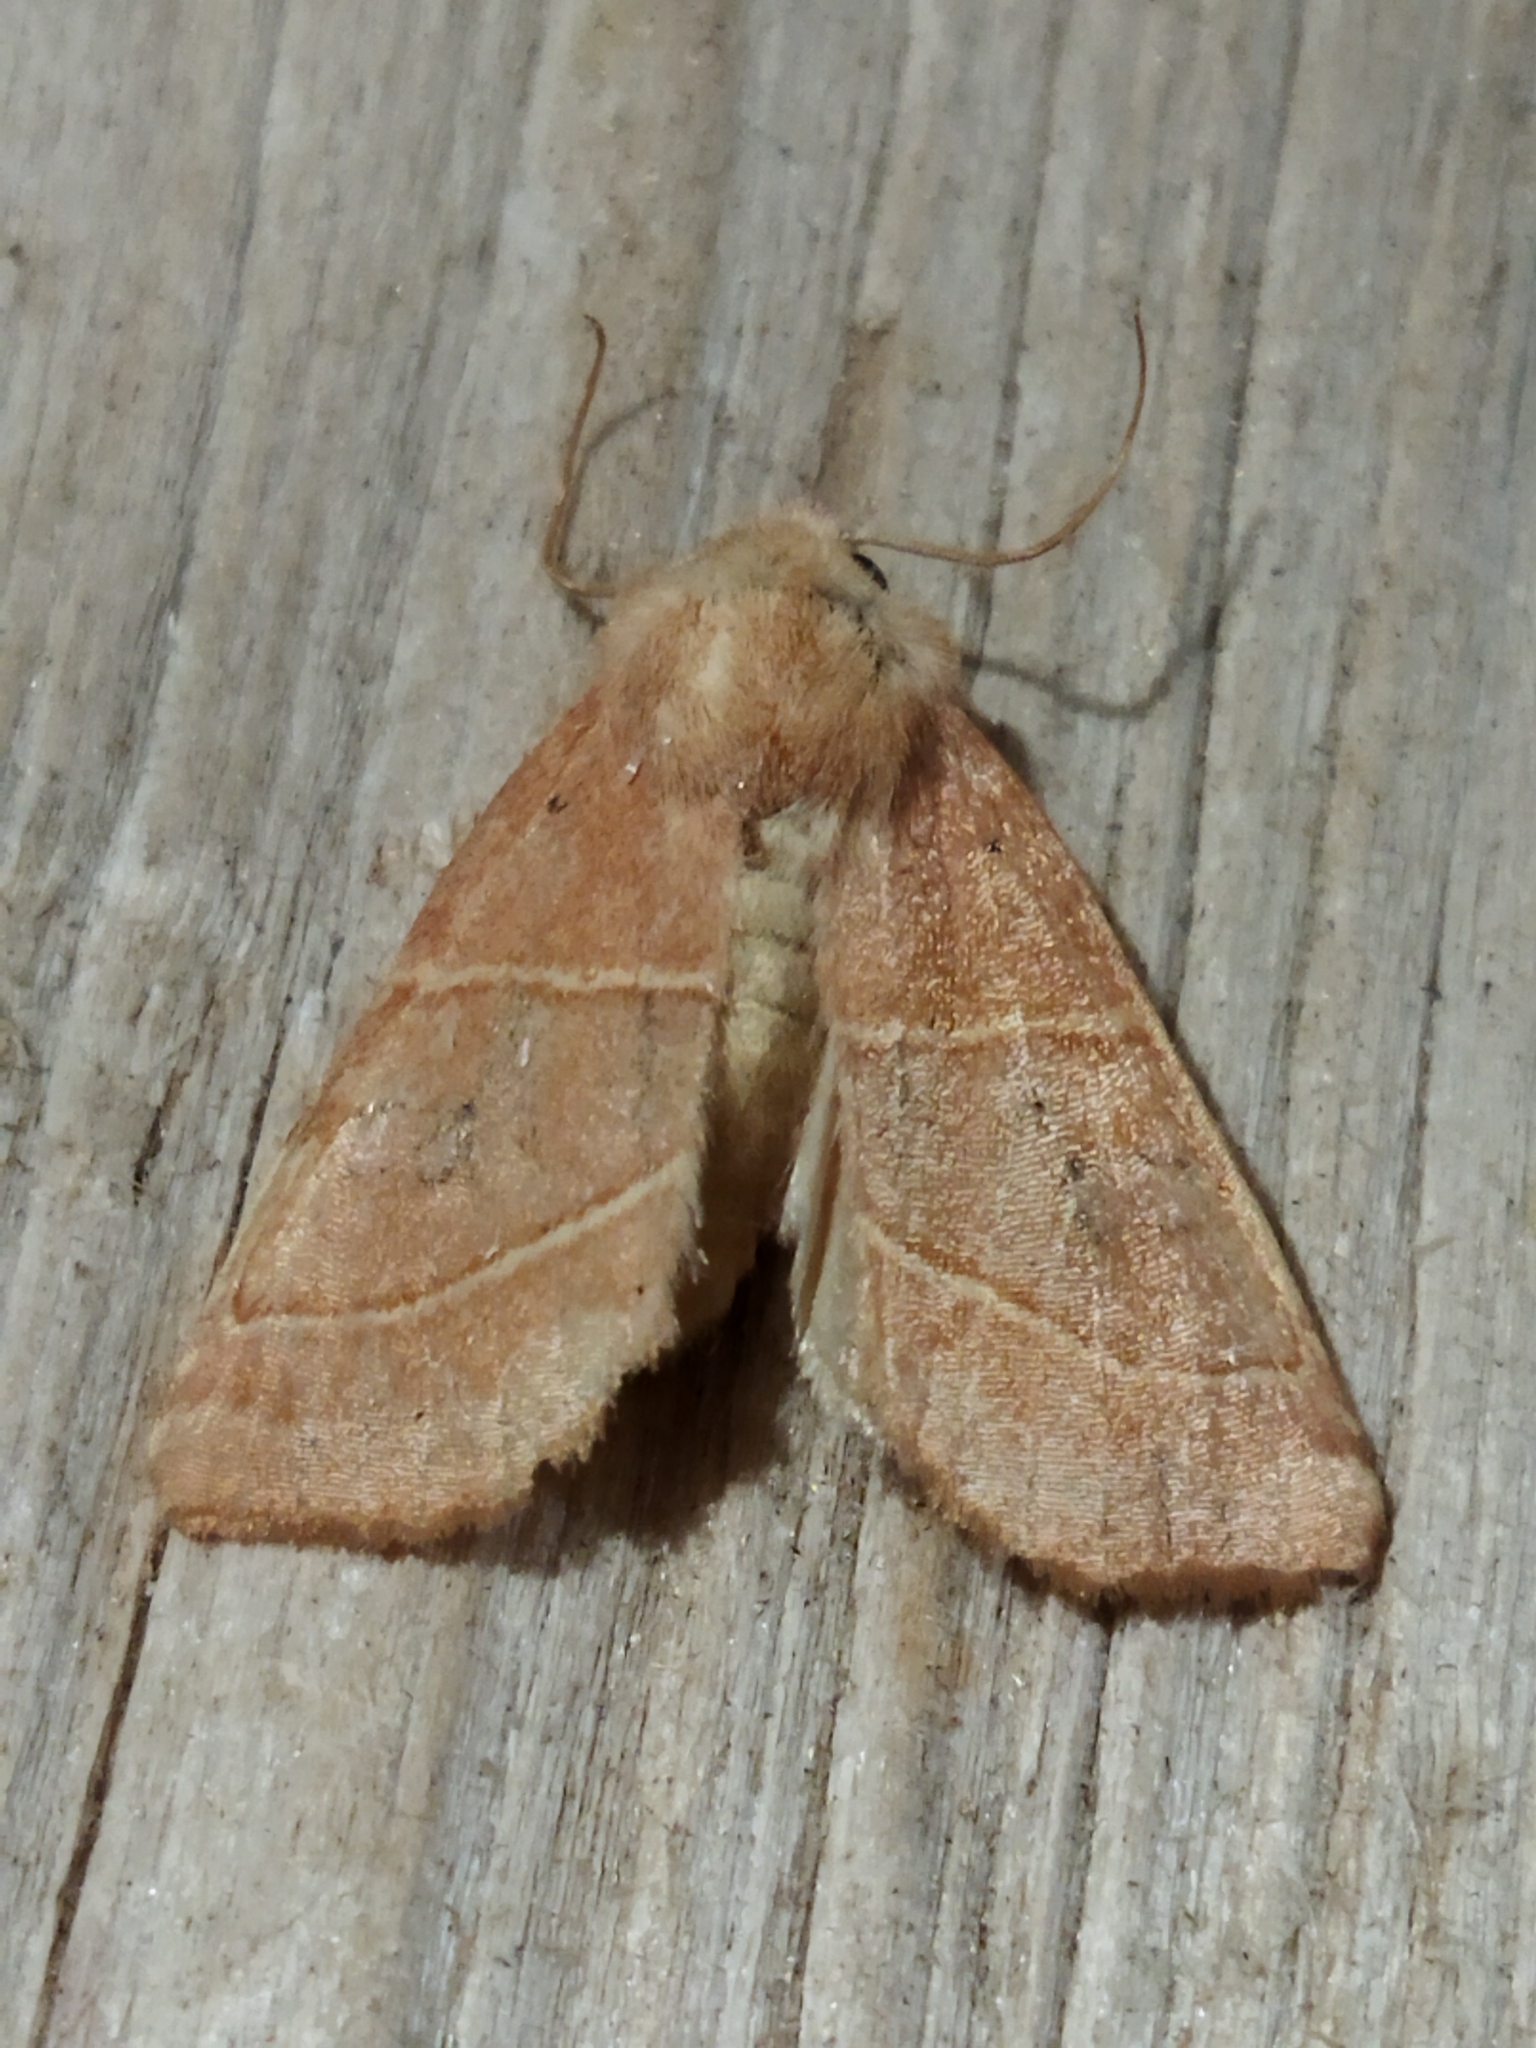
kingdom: Animalia
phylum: Arthropoda
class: Insecta
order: Lepidoptera
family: Noctuidae
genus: Atethmia
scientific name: Atethmia centrago
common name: Centre-barred sallow
